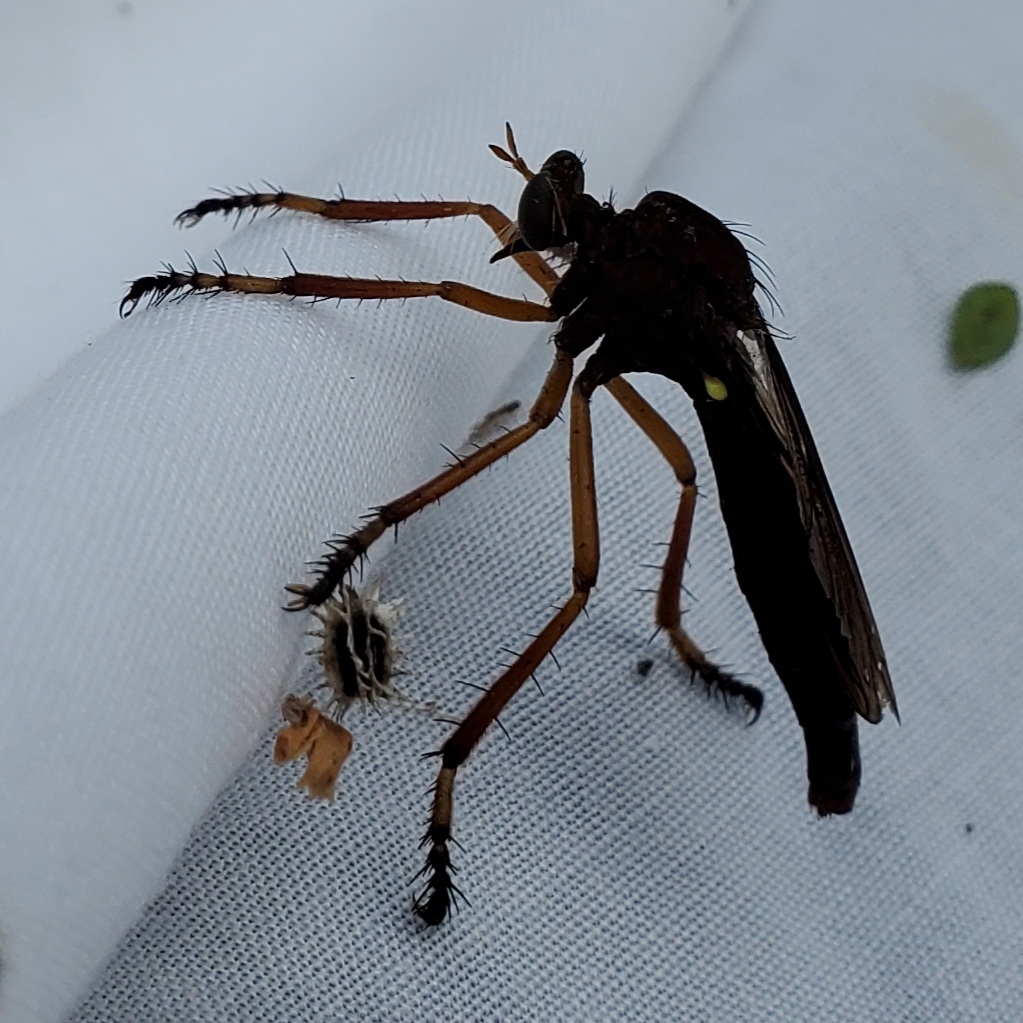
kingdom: Animalia
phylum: Arthropoda
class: Insecta
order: Diptera
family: Asilidae
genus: Diogmites
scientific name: Diogmites platypterus
